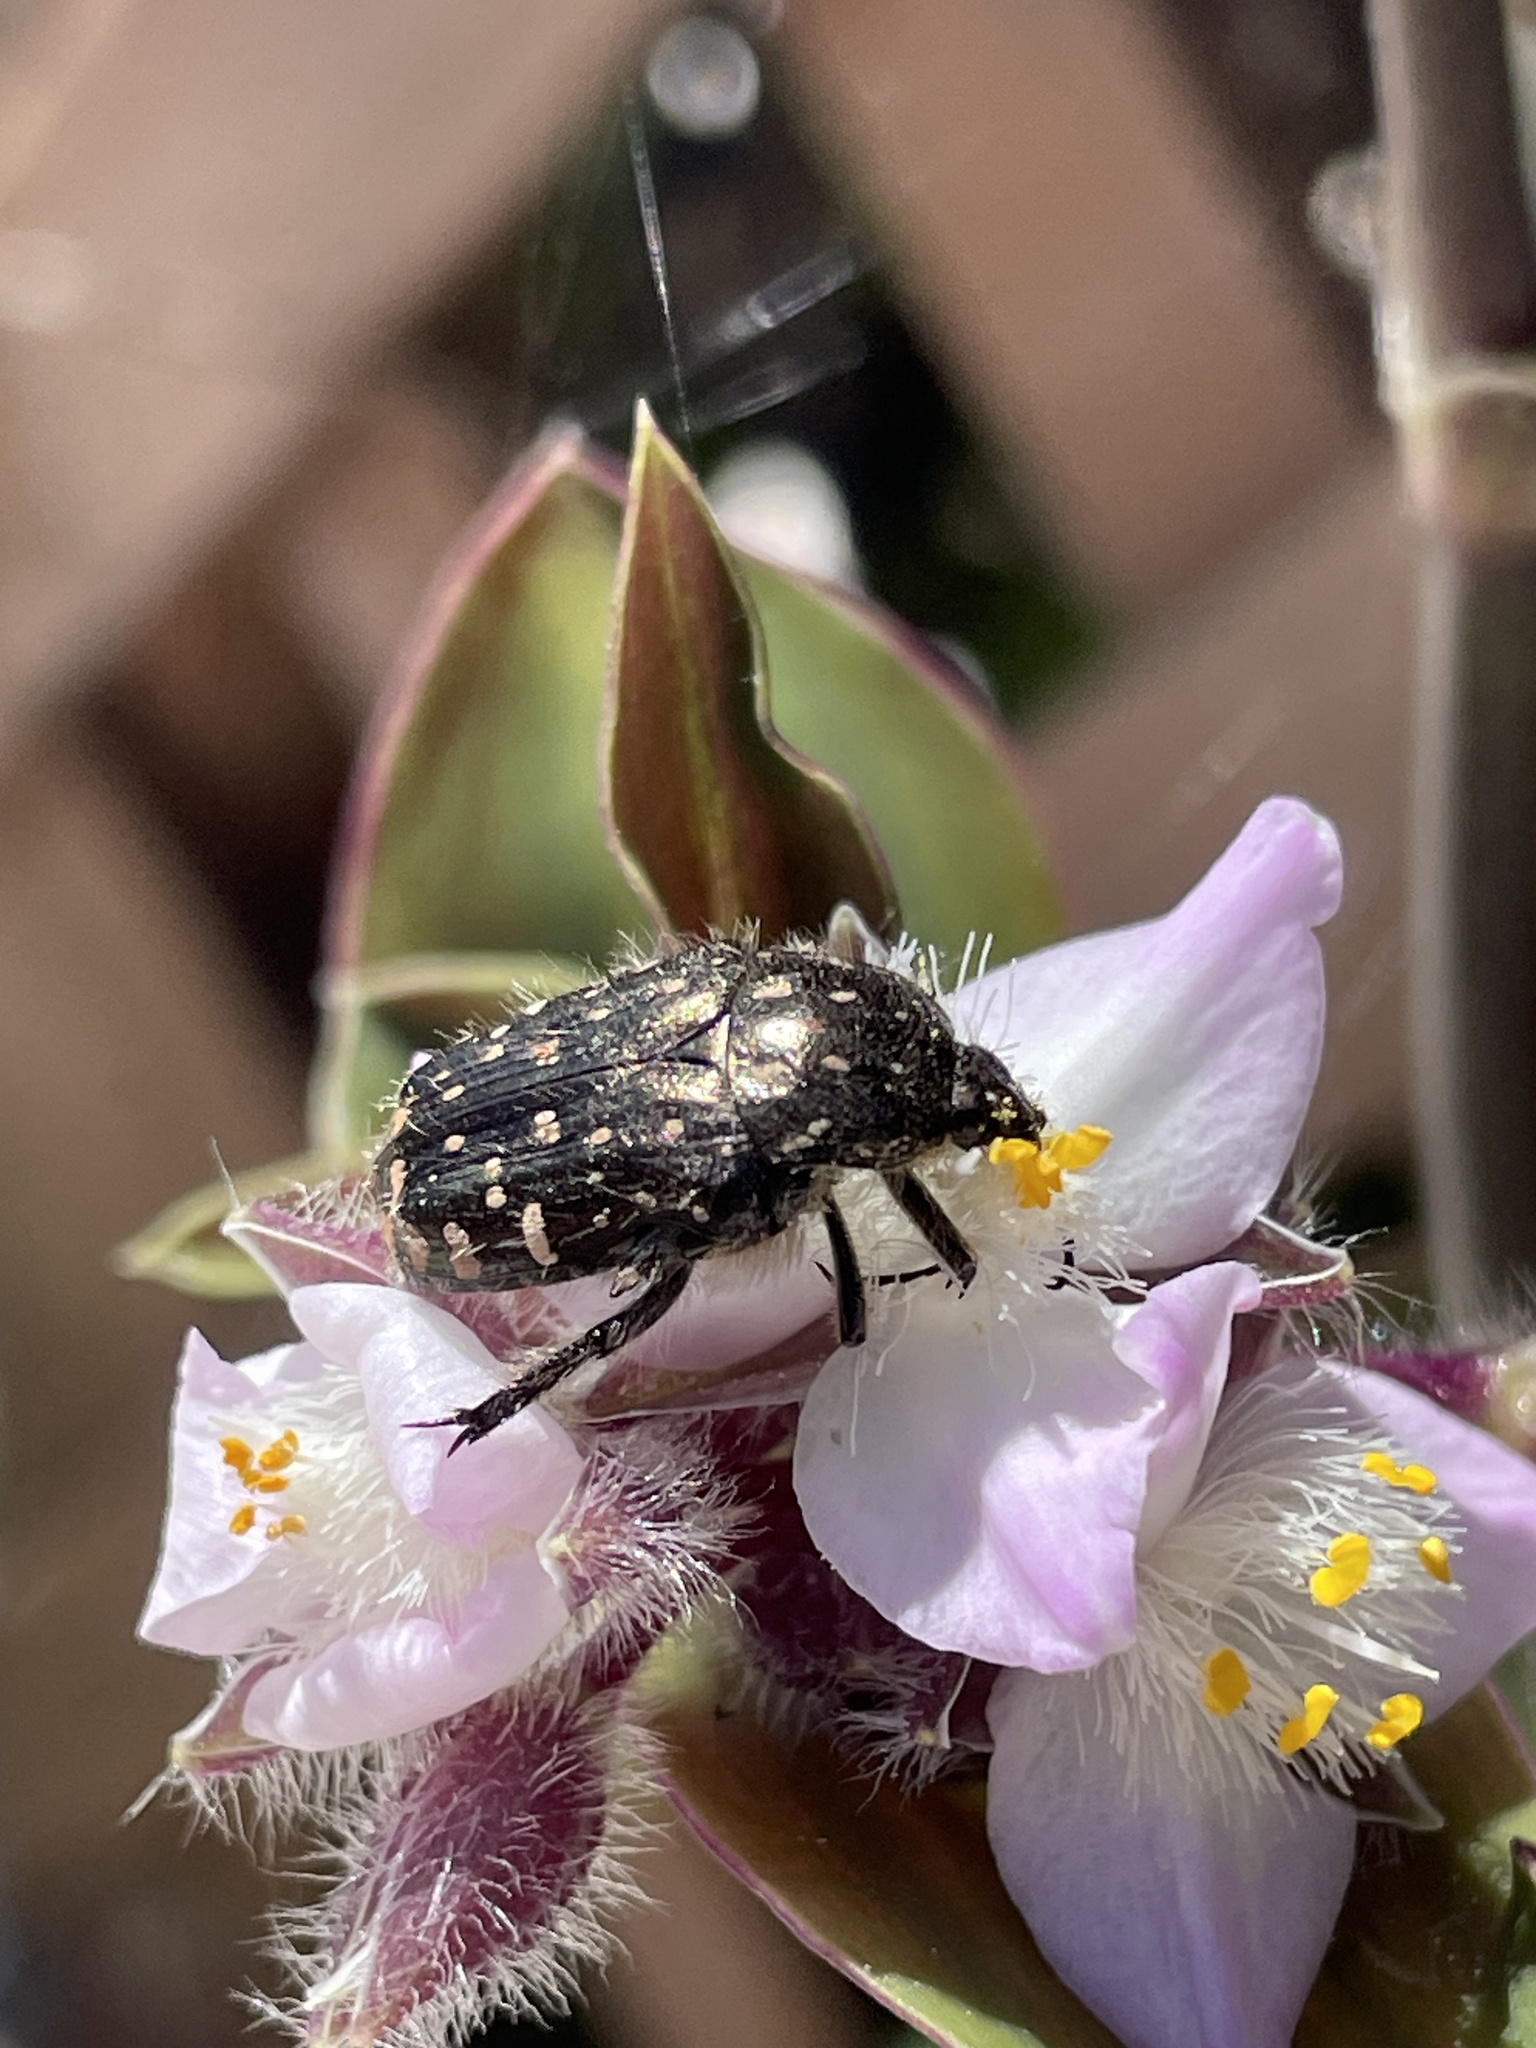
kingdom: Animalia
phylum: Arthropoda
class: Insecta
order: Coleoptera
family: Scarabaeidae
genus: Oxythyrea
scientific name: Oxythyrea funesta
